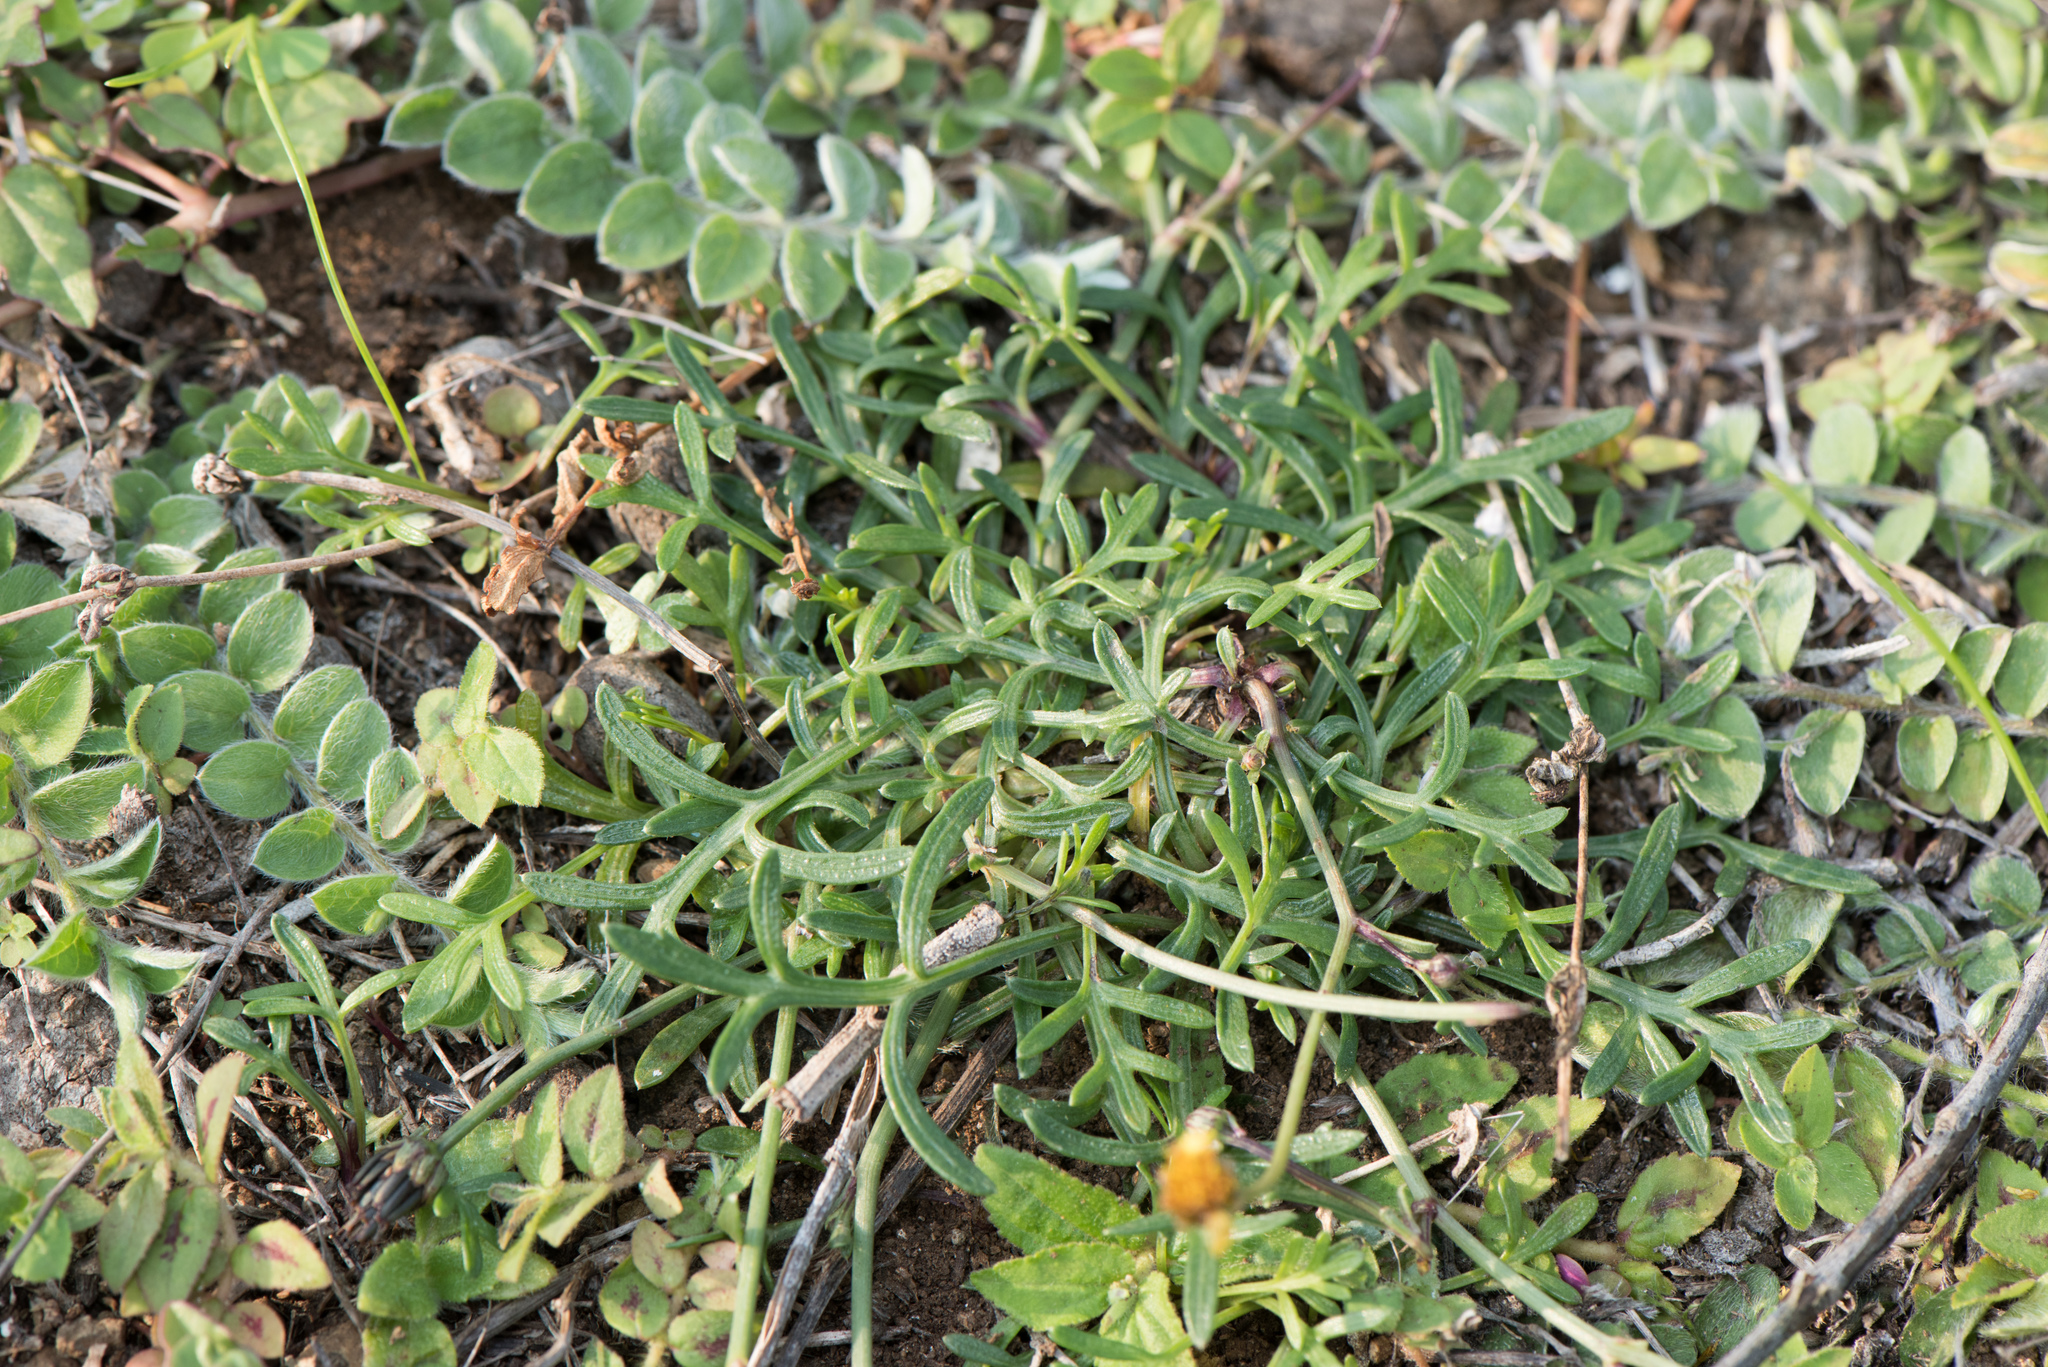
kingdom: Plantae
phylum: Tracheophyta
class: Magnoliopsida
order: Asterales
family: Asteraceae
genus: Glossocardia
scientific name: Glossocardia bidens
